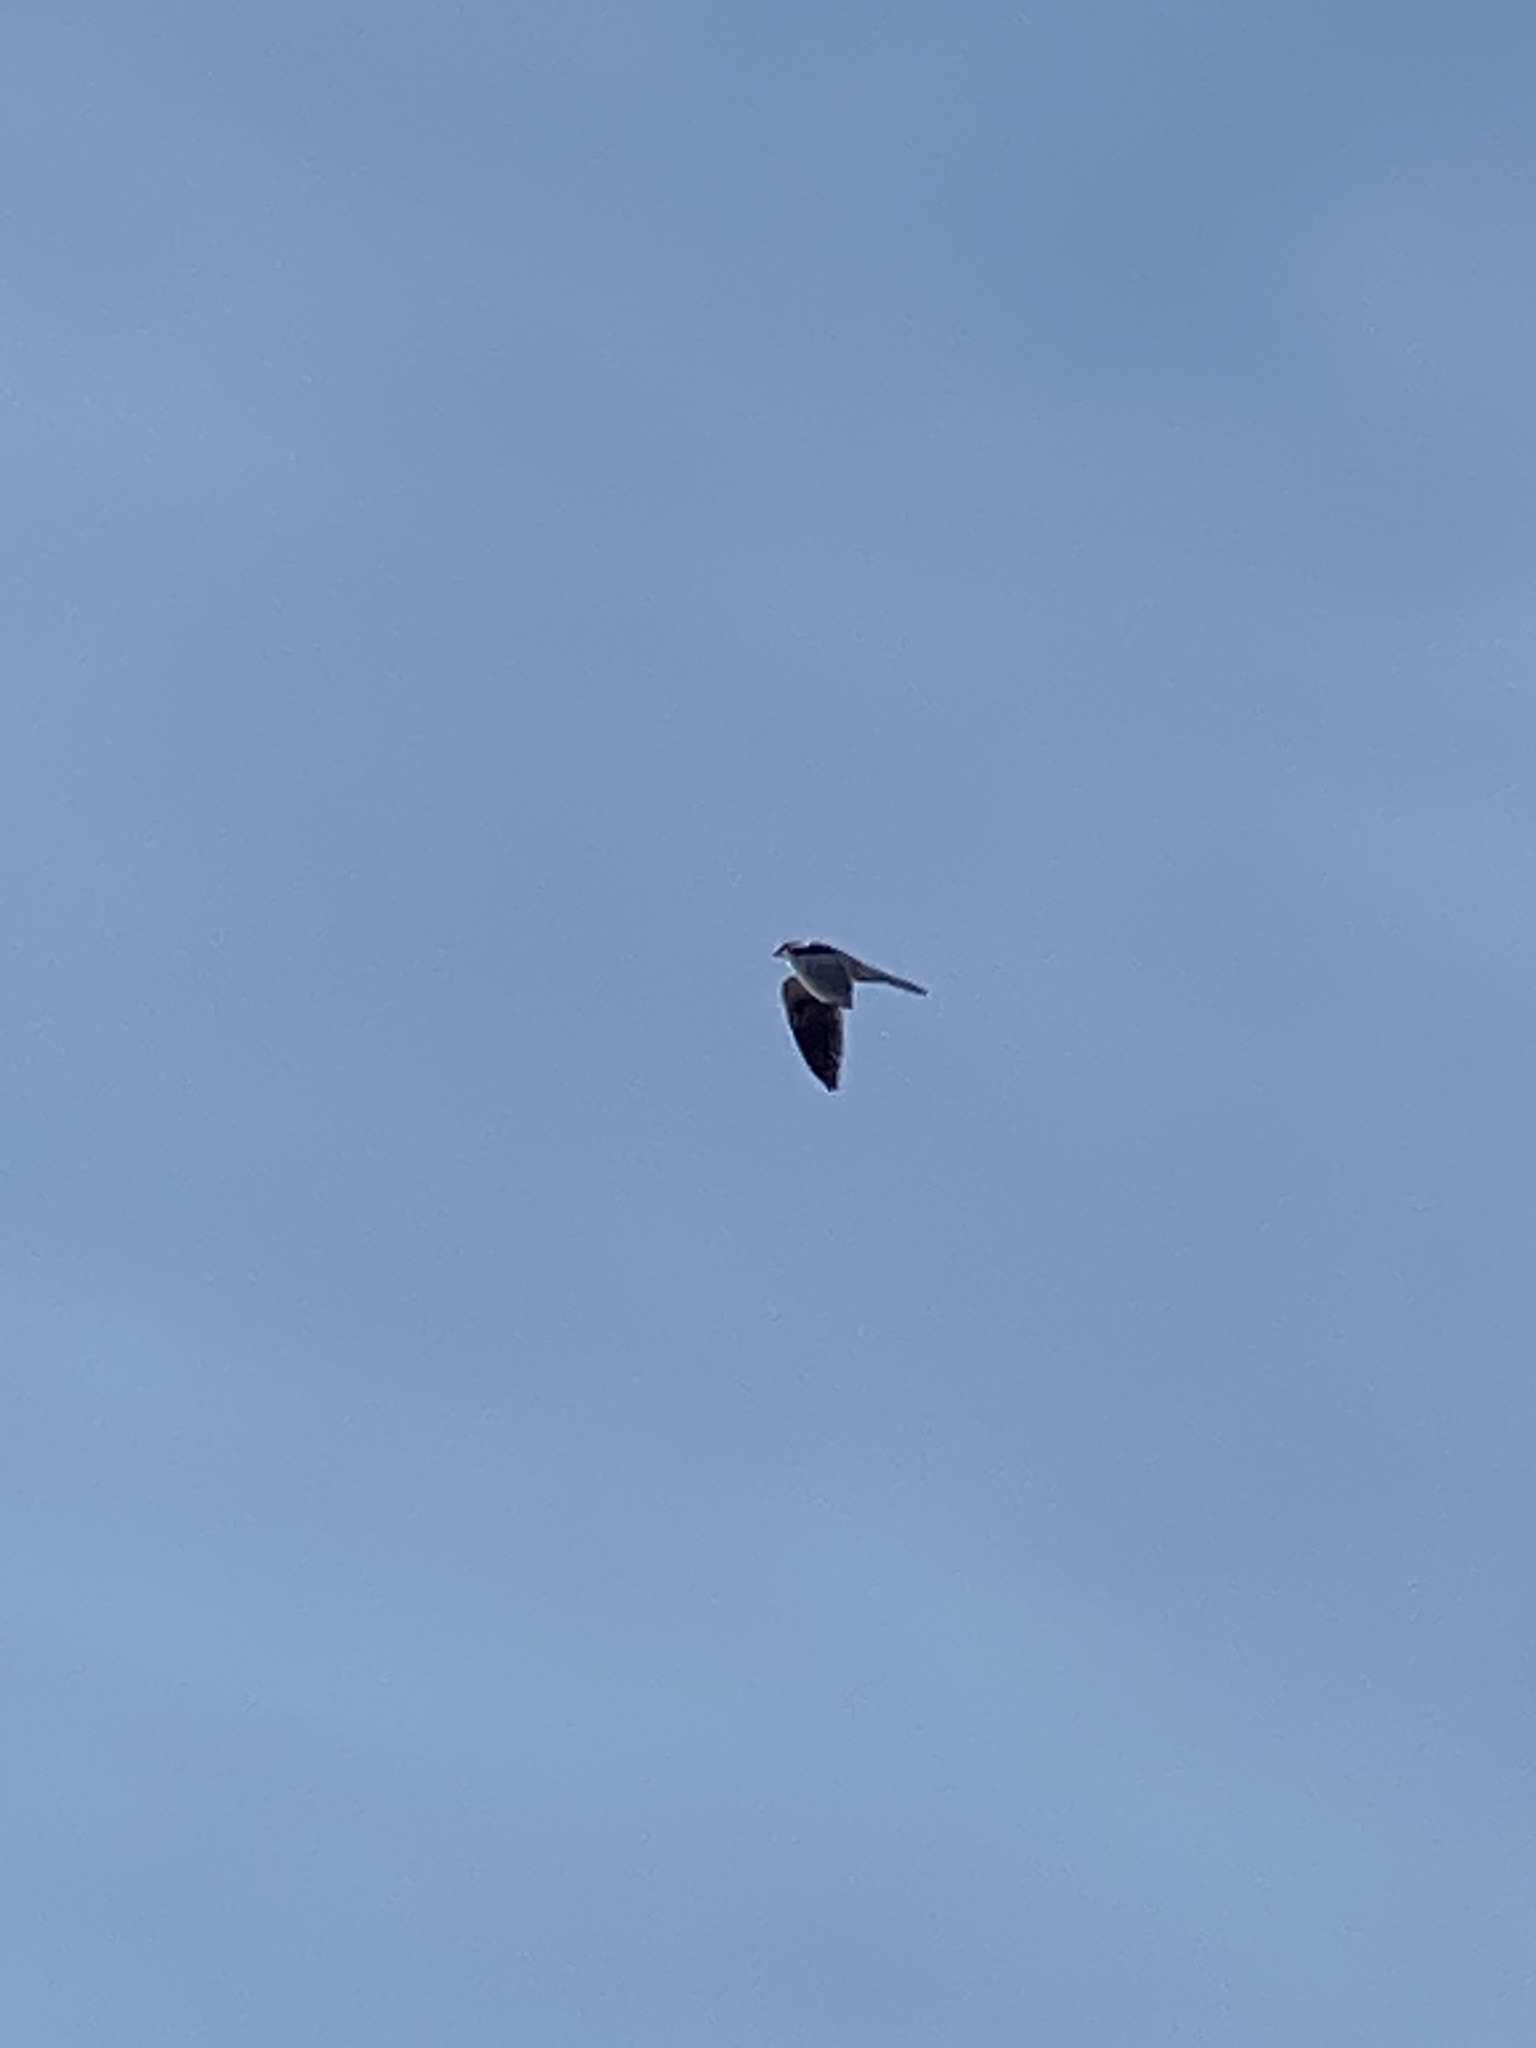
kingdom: Animalia
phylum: Chordata
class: Aves
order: Accipitriformes
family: Accipitridae
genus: Elanus
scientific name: Elanus leucurus
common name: White-tailed kite
